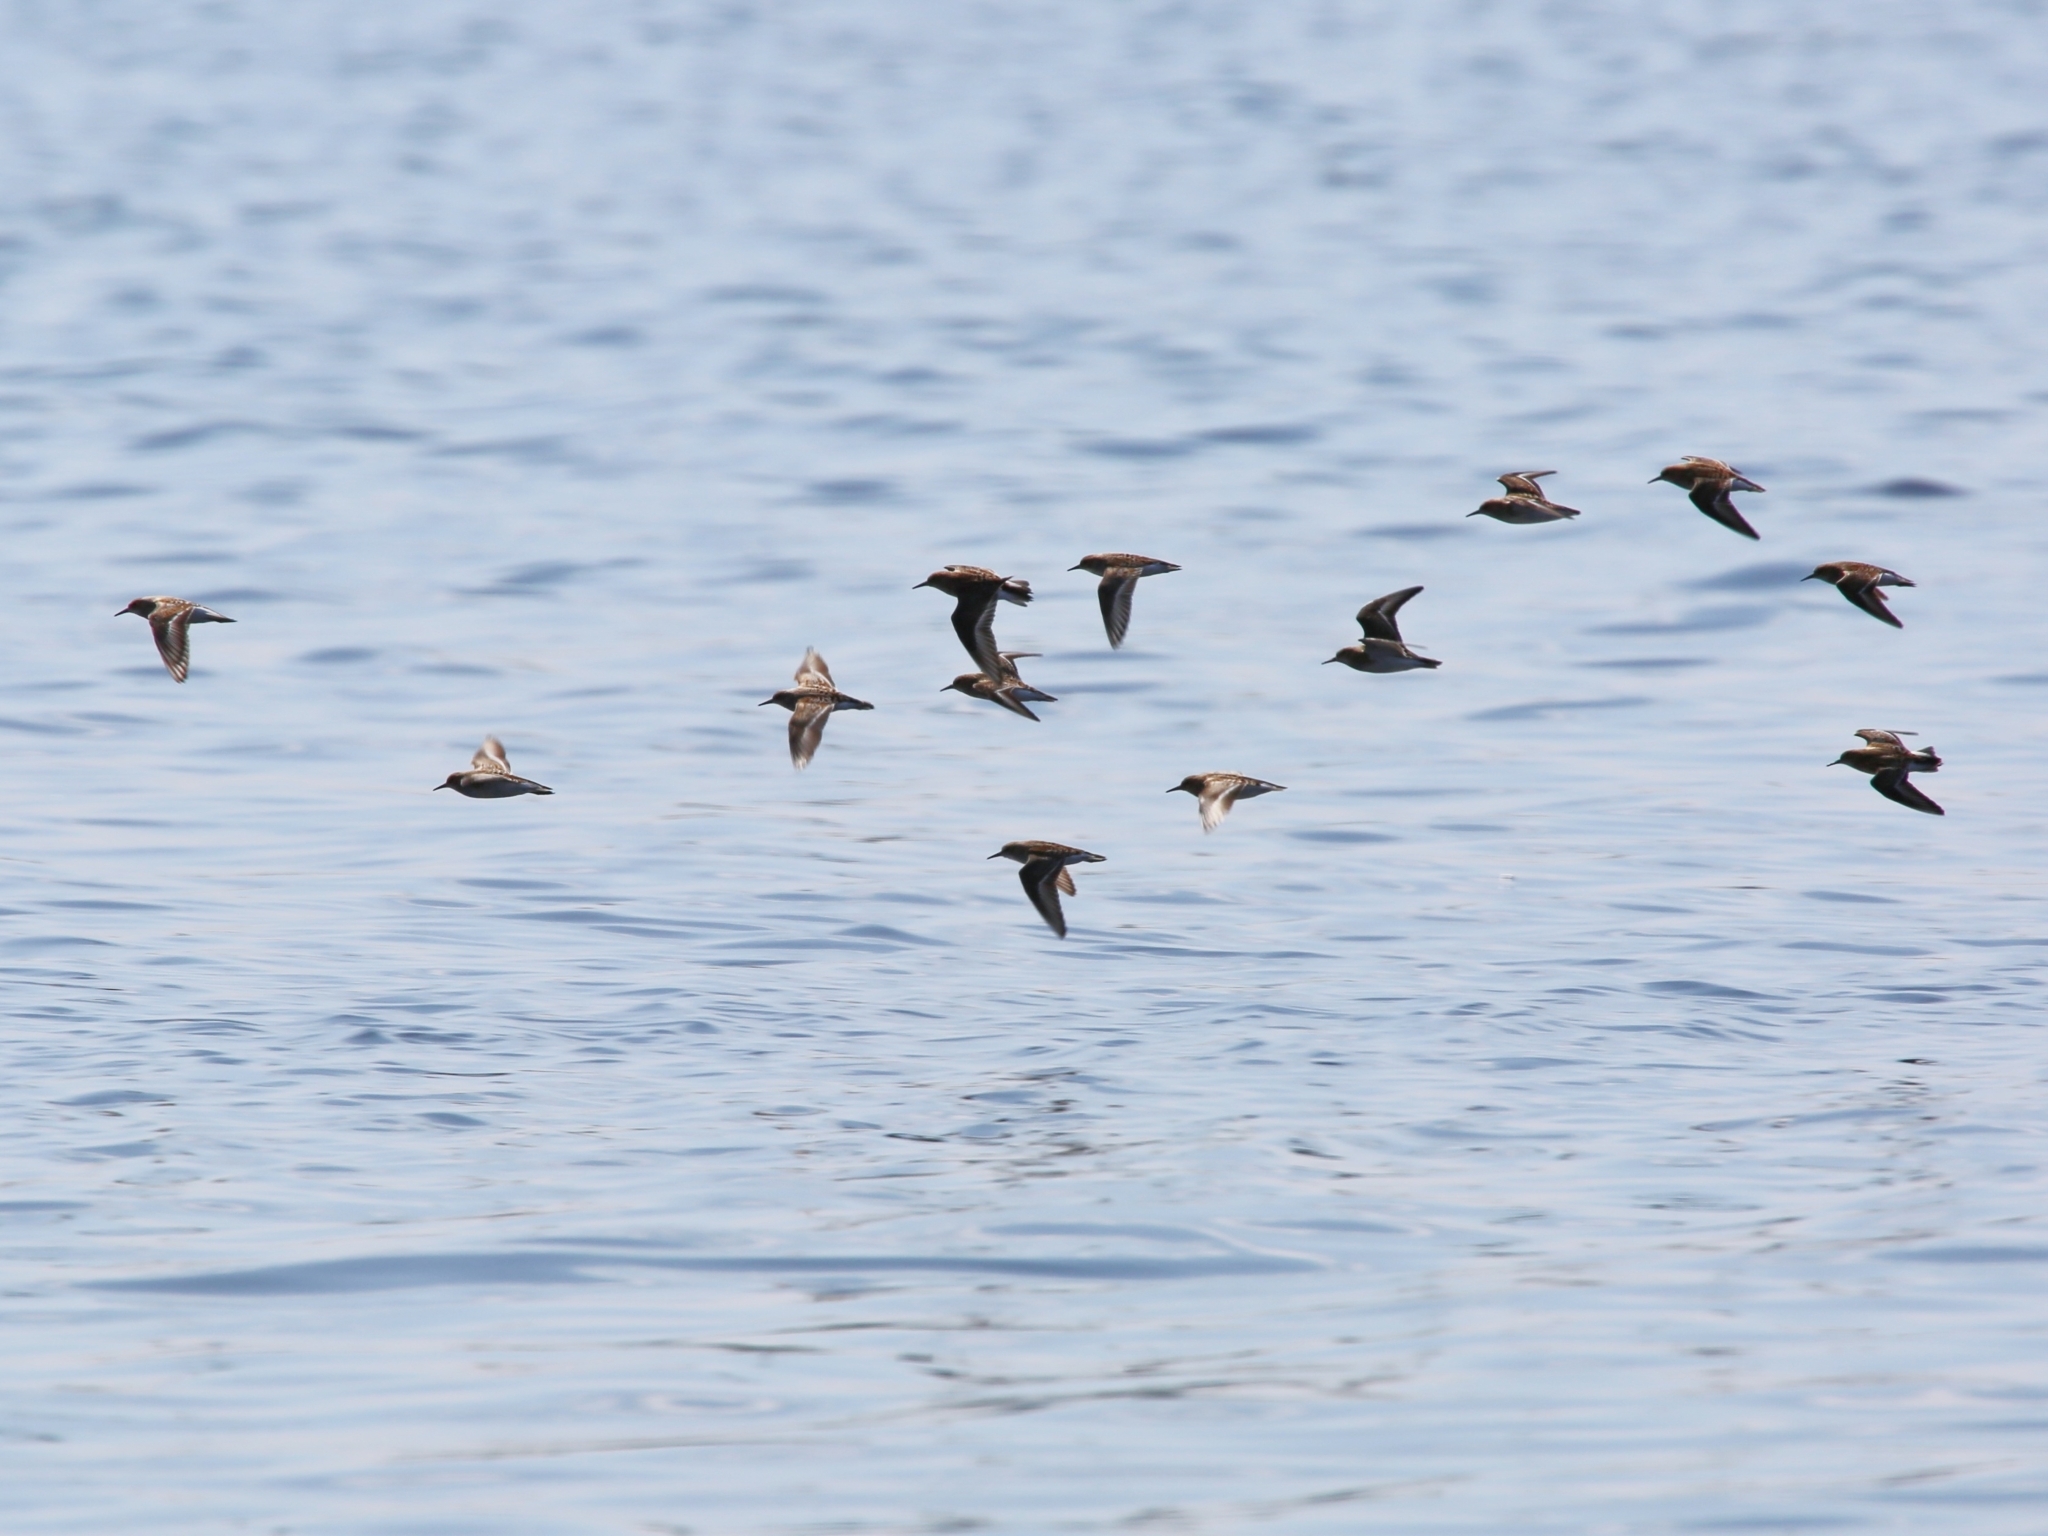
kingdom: Animalia
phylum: Chordata
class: Aves
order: Charadriiformes
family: Scolopacidae
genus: Calidris
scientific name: Calidris minuta
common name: Little stint
